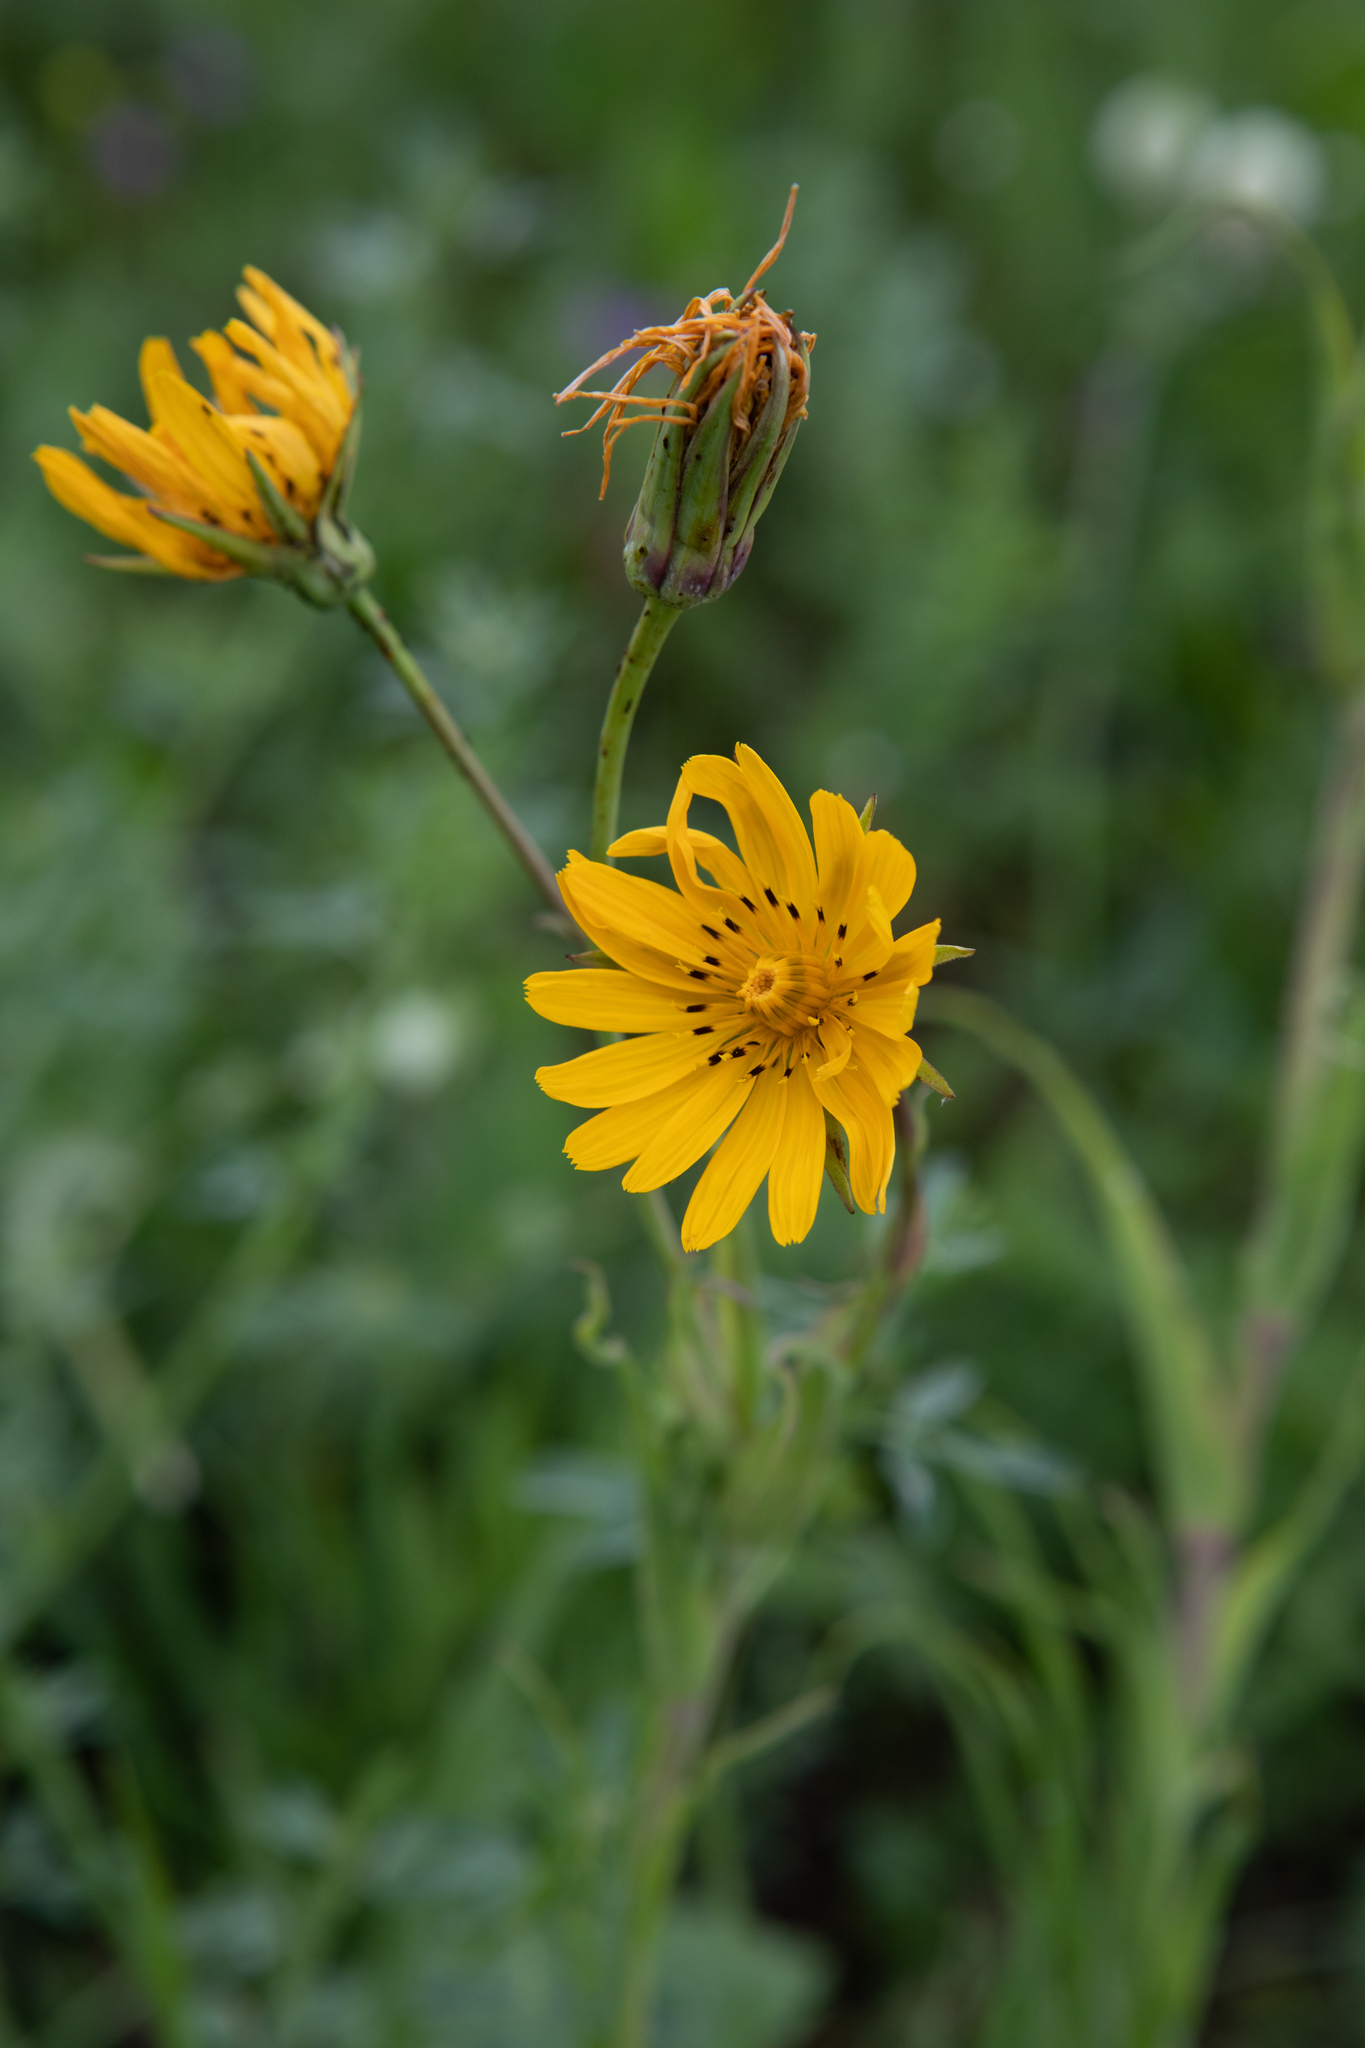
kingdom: Plantae
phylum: Tracheophyta
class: Magnoliopsida
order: Asterales
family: Asteraceae
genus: Tragopogon
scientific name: Tragopogon orientalis
